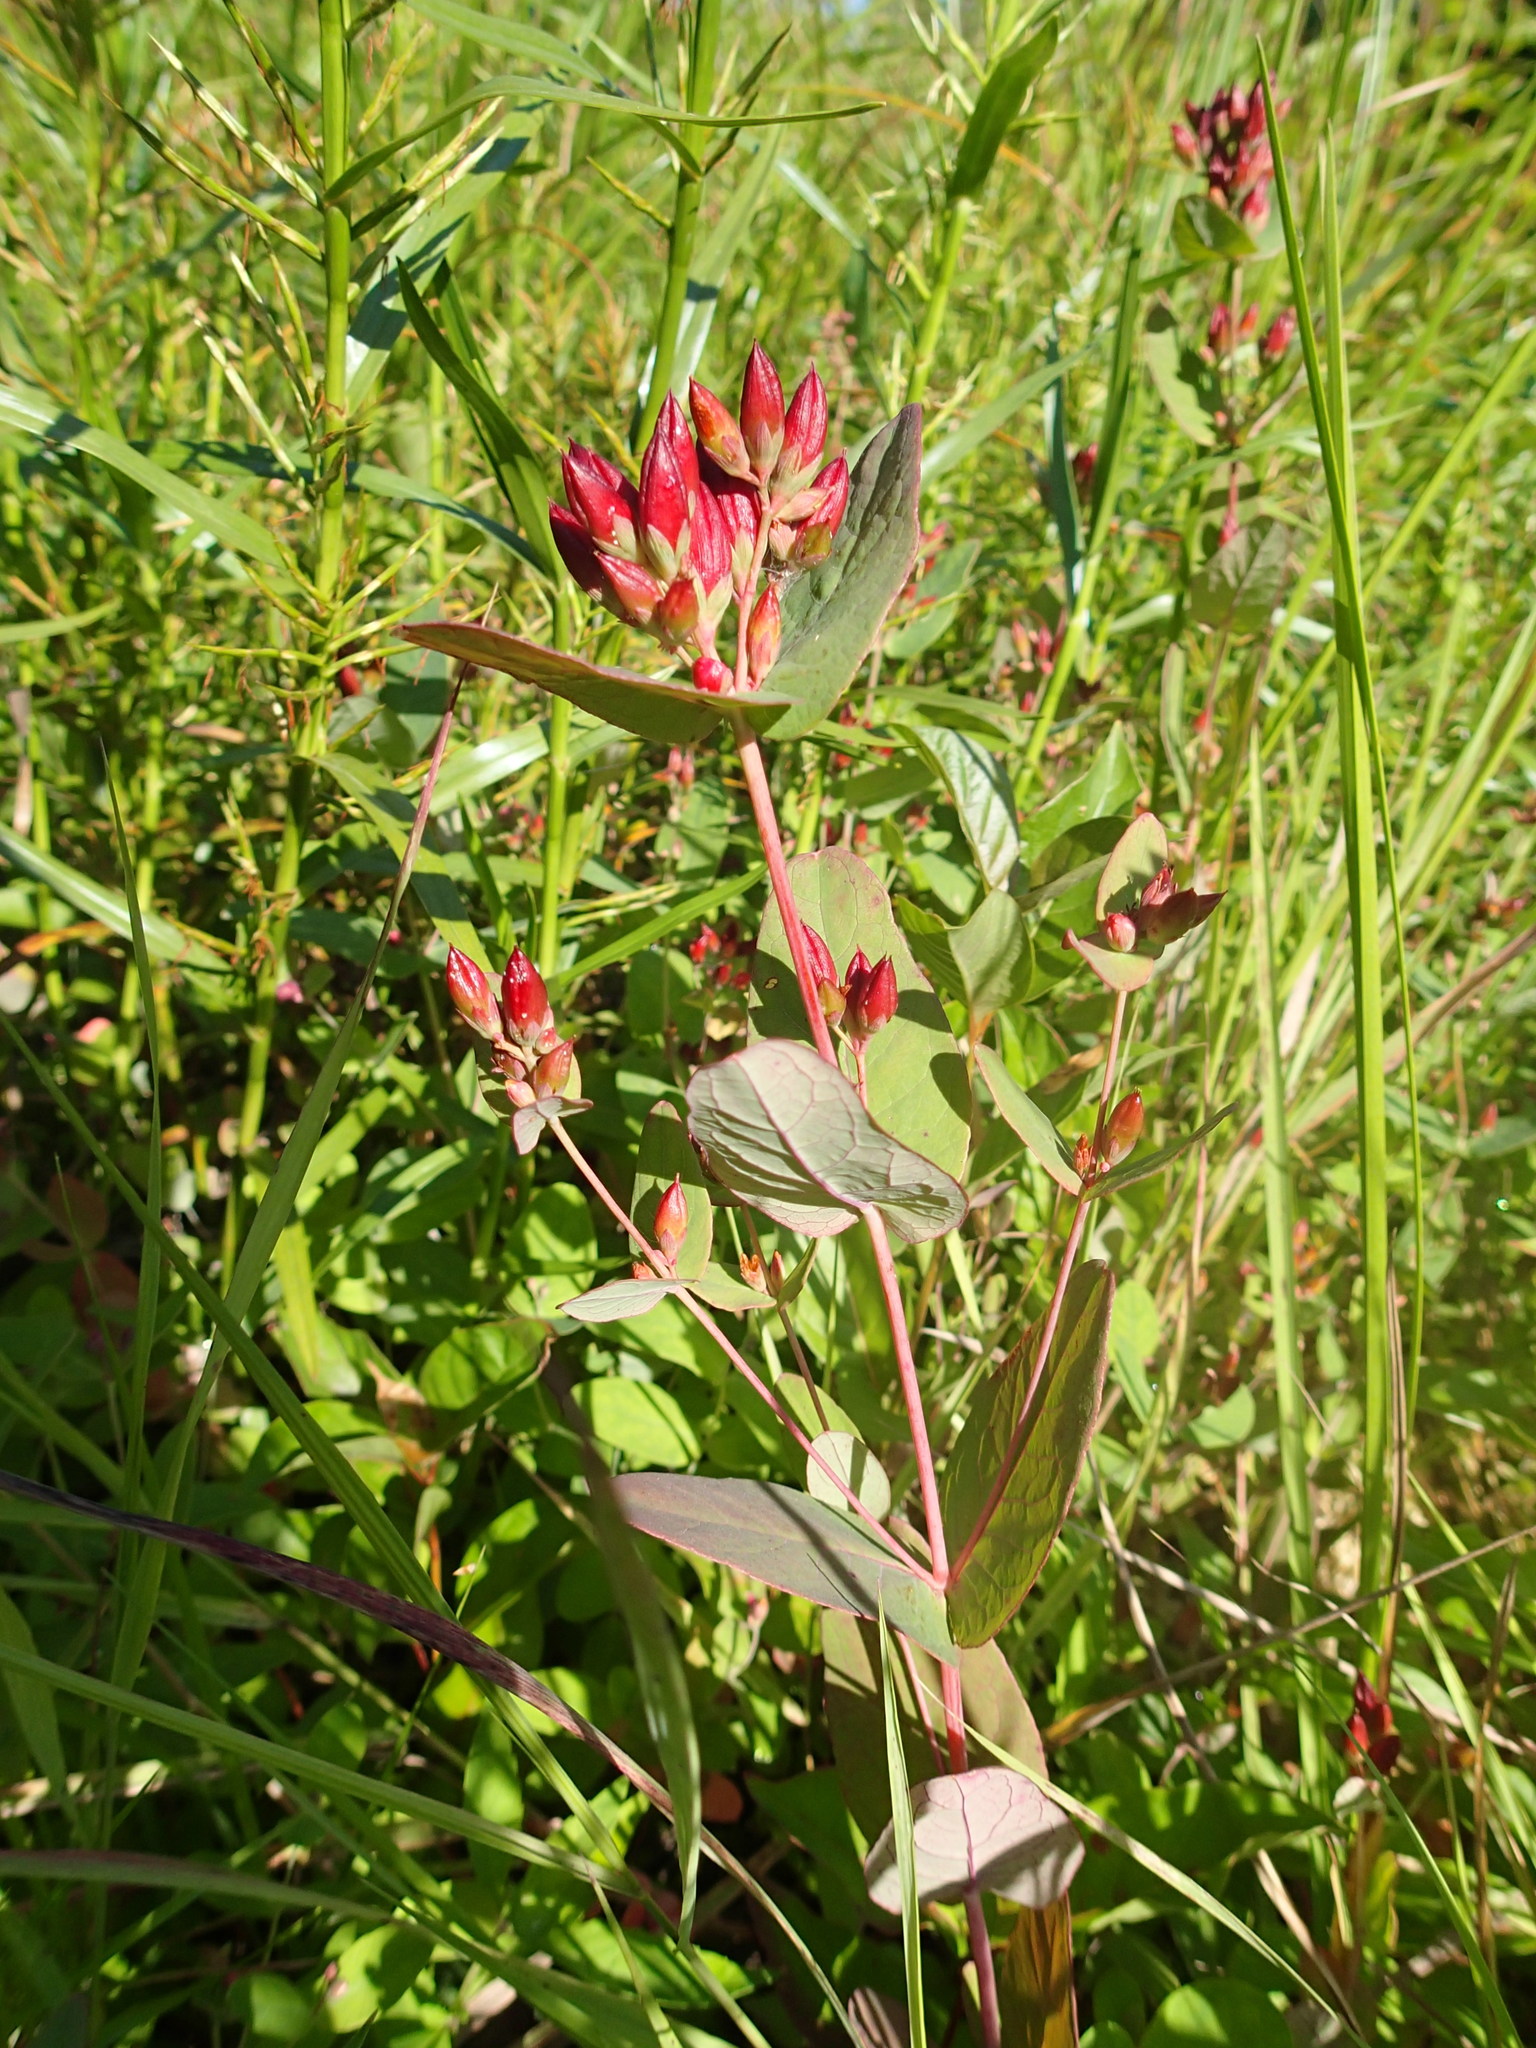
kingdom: Plantae
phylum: Tracheophyta
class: Magnoliopsida
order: Malpighiales
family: Hypericaceae
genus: Triadenum
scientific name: Triadenum fraseri
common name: Fraser's marsh st. johnswort
